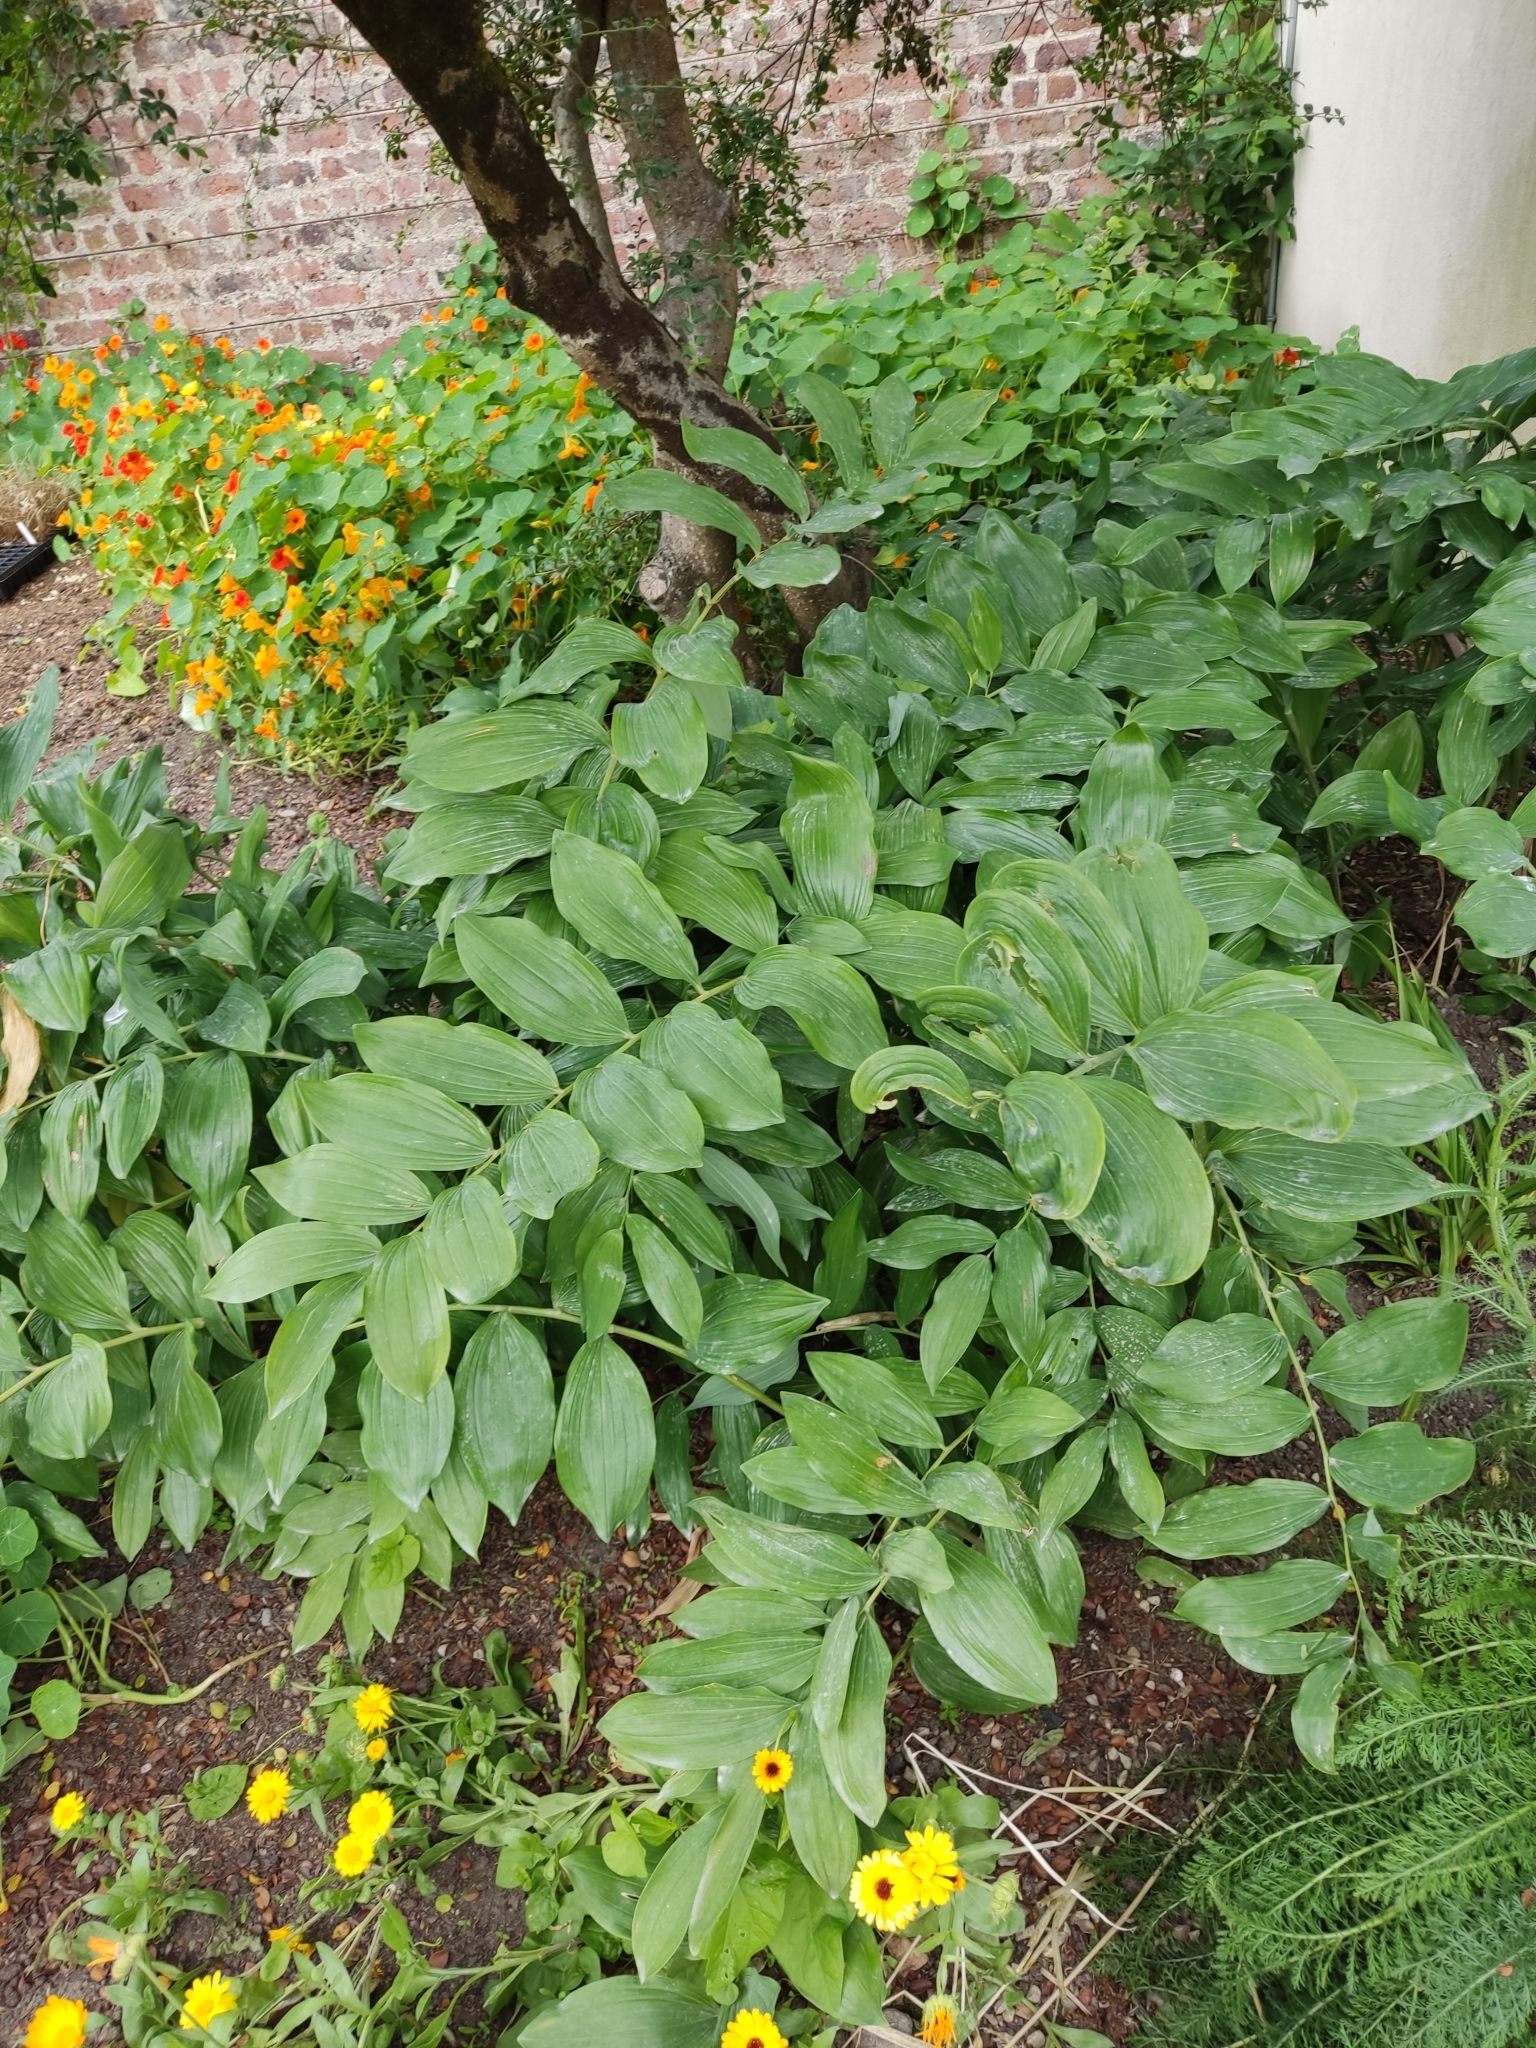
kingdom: Plantae
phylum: Tracheophyta
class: Liliopsida
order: Asparagales
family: Asparagaceae
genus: Polygonatum
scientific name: Polygonatum multiflorum
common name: Solomon's-seal
